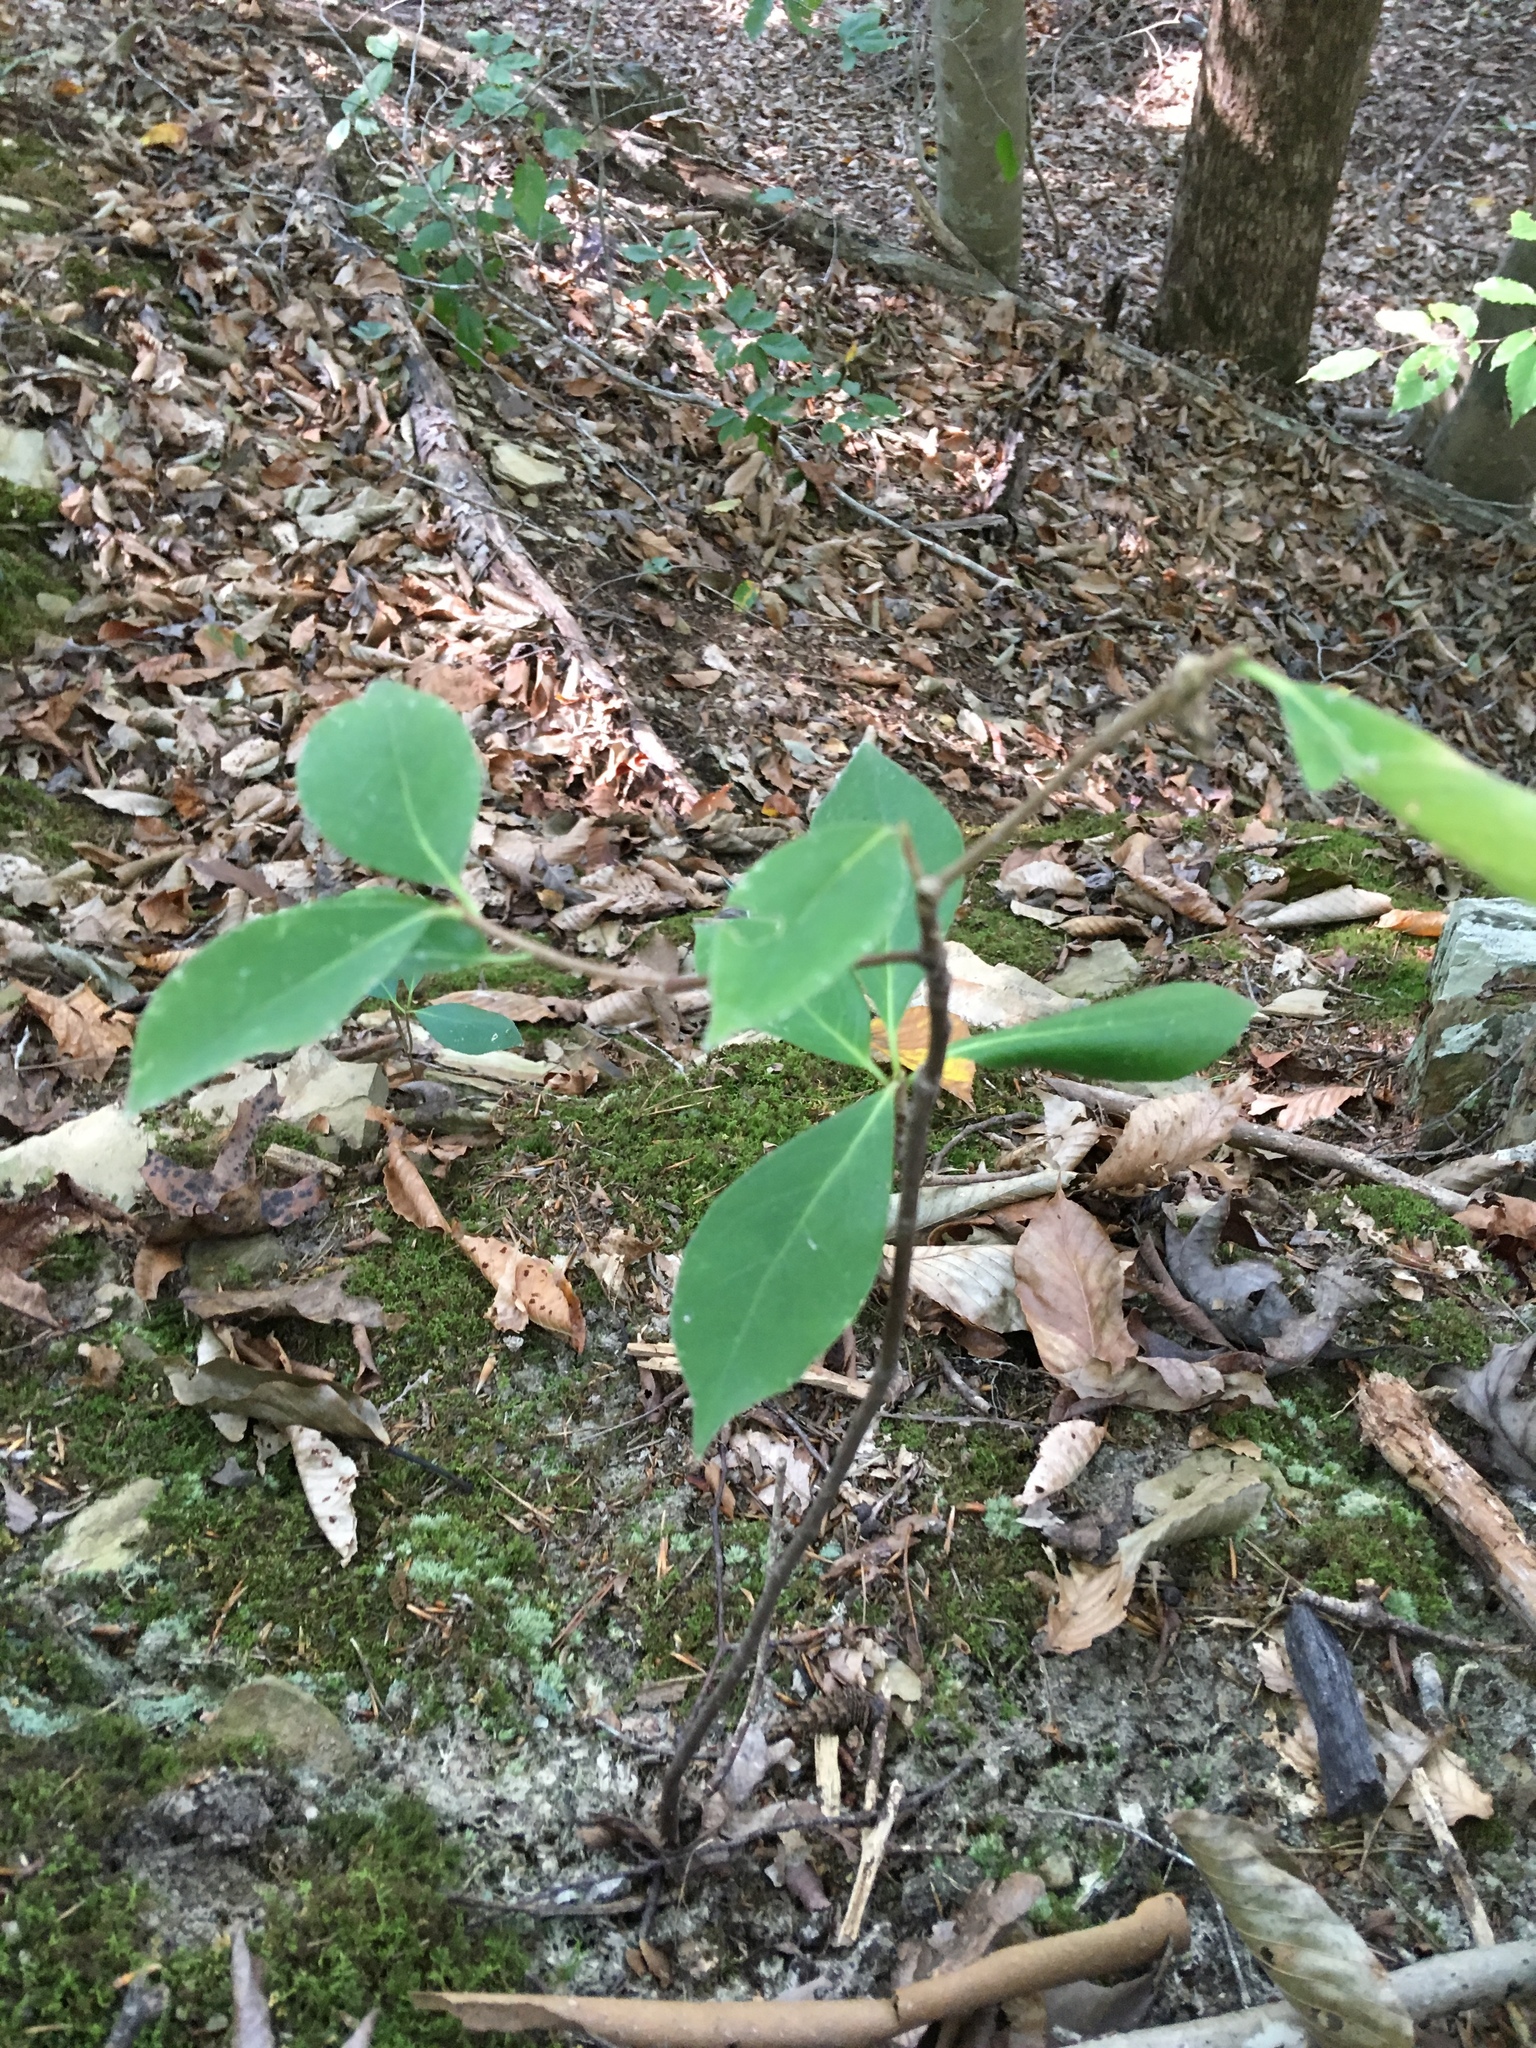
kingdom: Plantae
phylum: Tracheophyta
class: Magnoliopsida
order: Ericales
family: Symplocaceae
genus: Symplocos
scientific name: Symplocos tinctoria
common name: Horse-sugar
